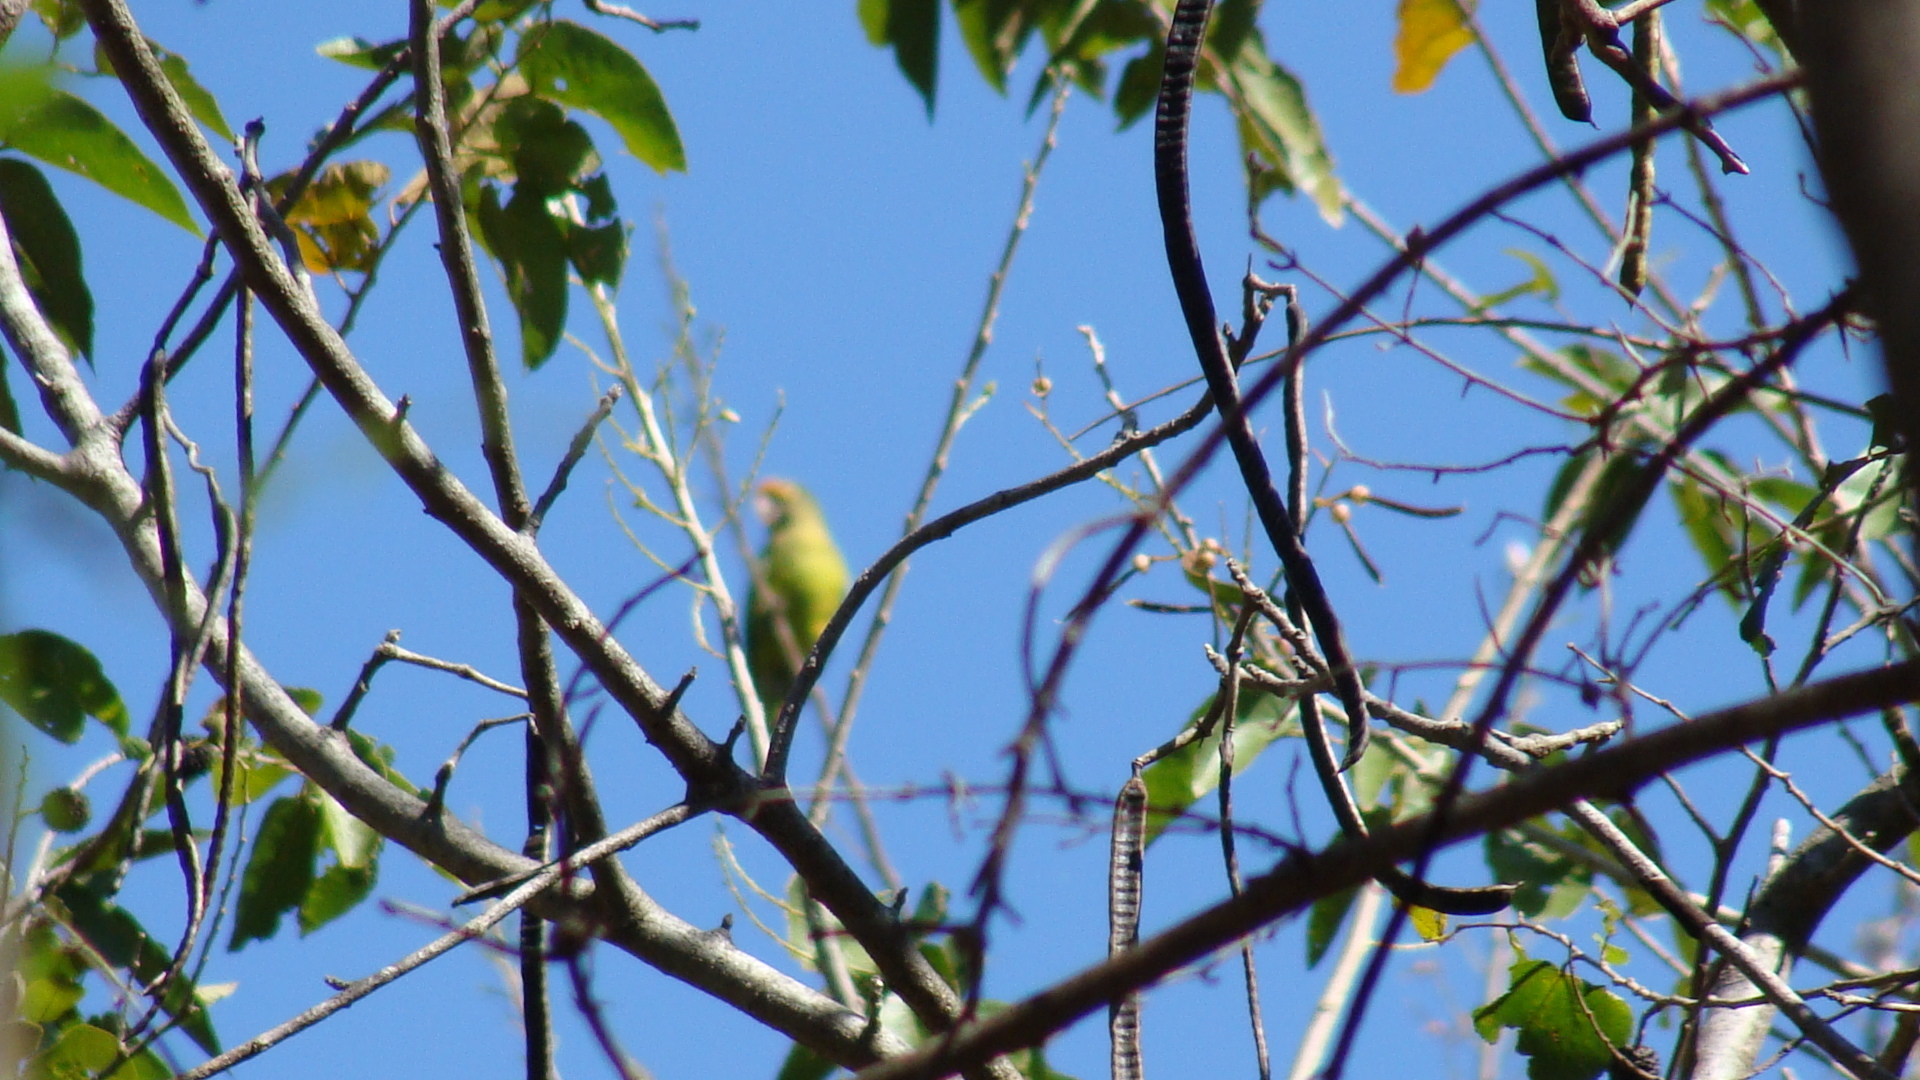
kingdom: Animalia
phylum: Chordata
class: Aves
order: Psittaciformes
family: Psittacidae
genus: Aratinga
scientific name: Aratinga canicularis
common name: Orange-fronted parakeet
